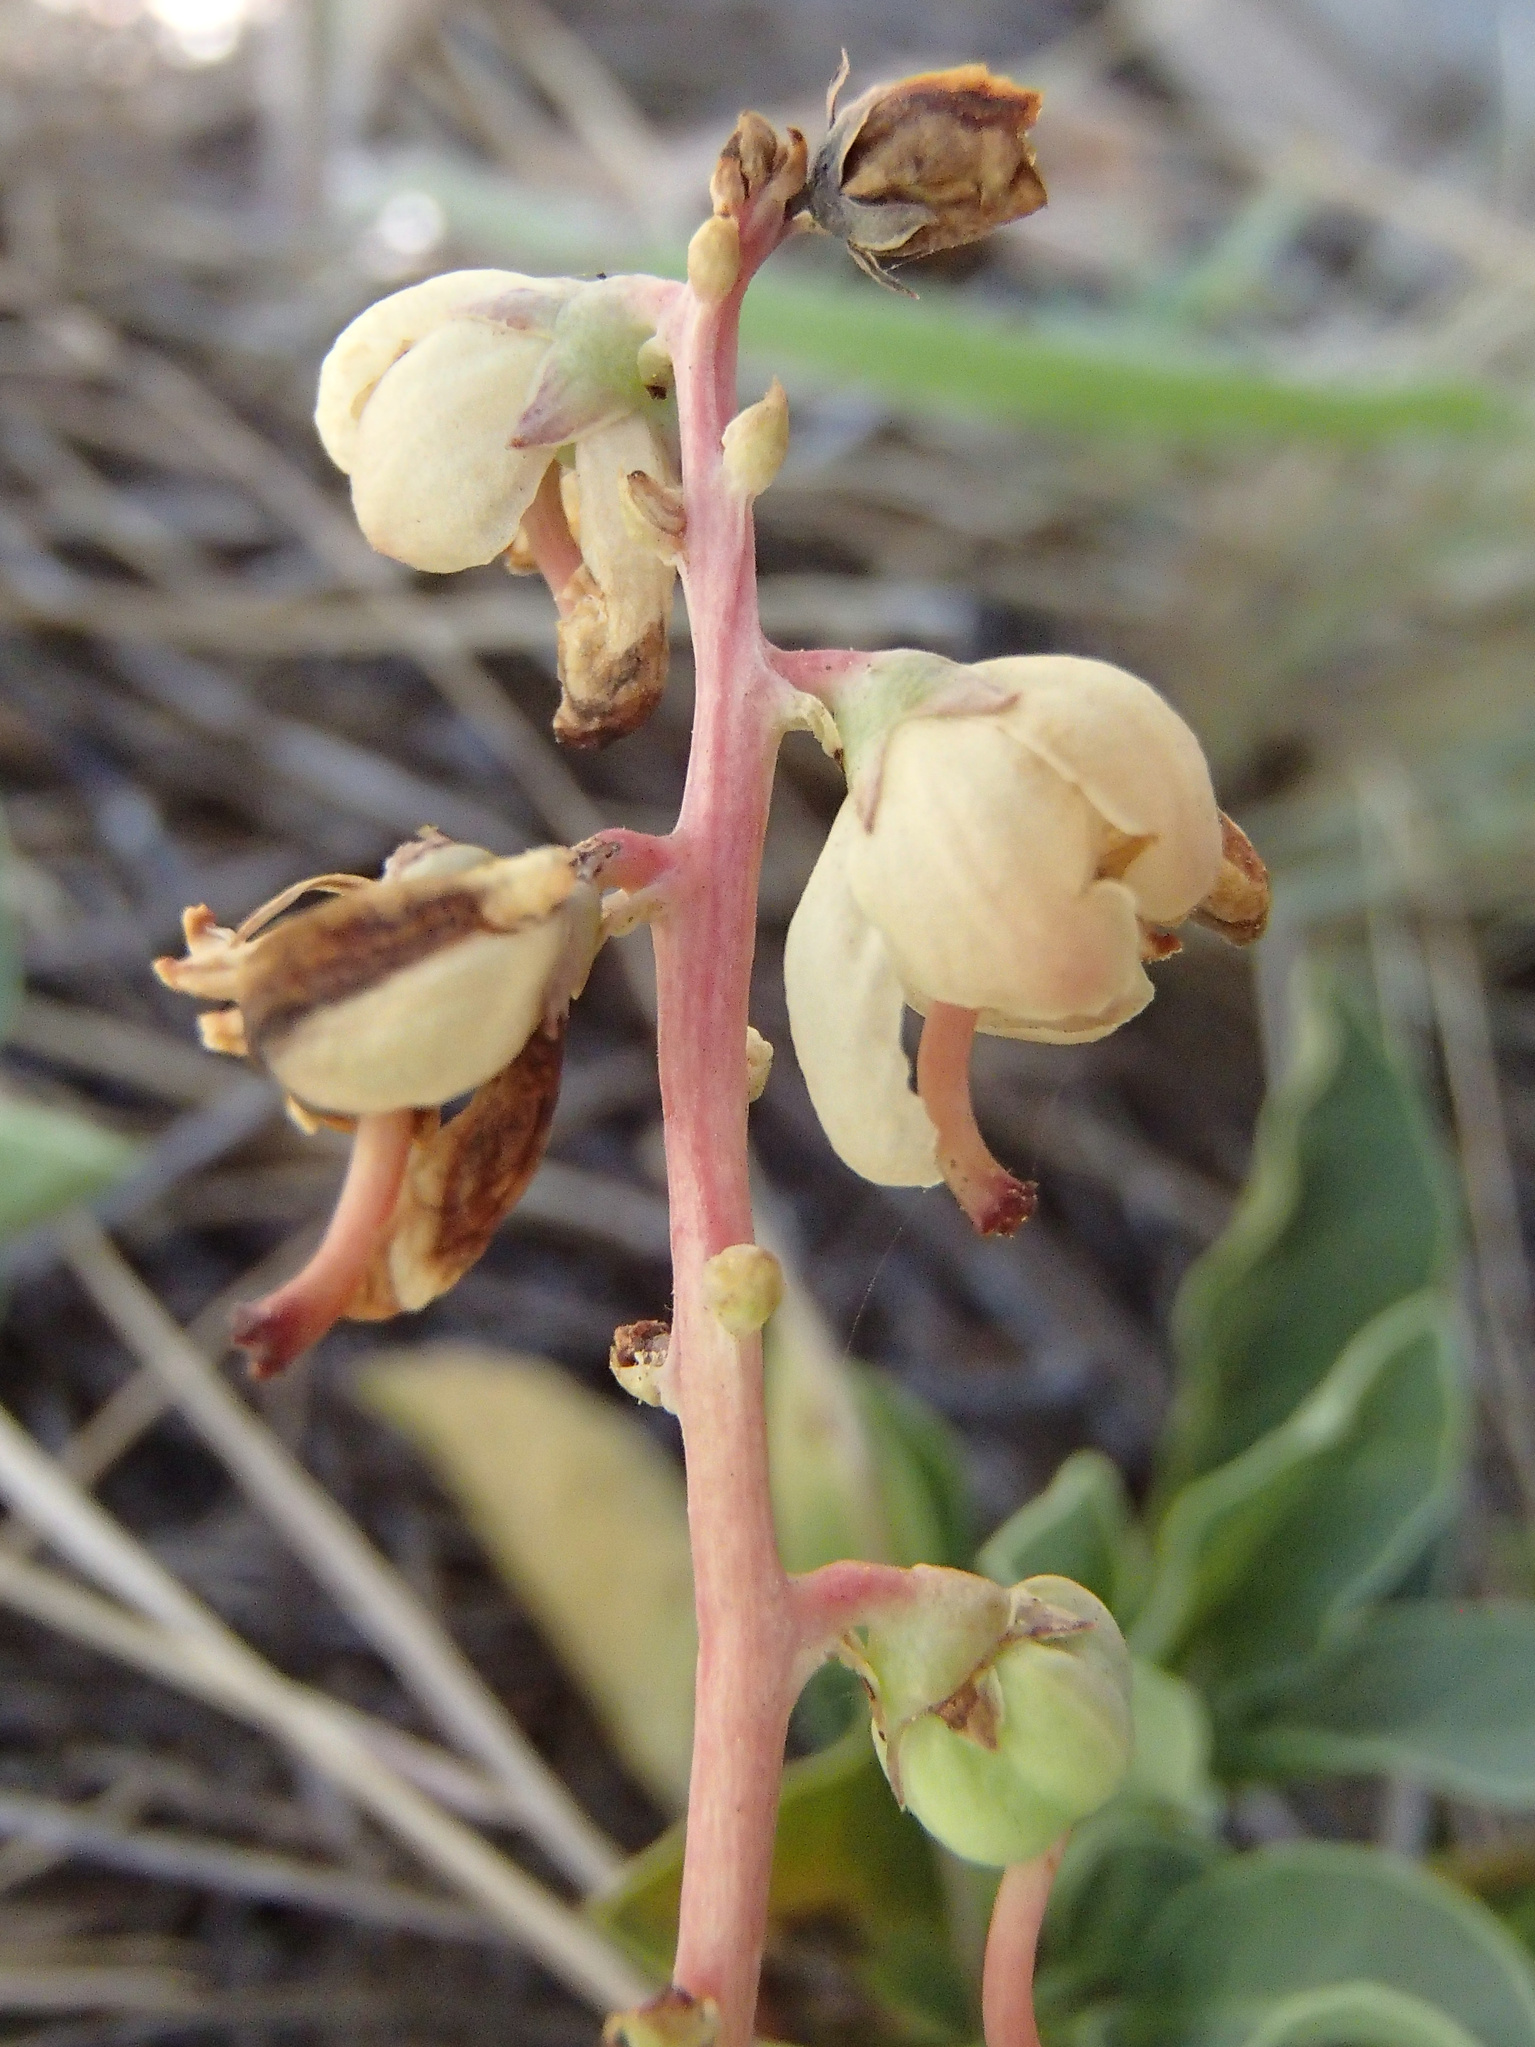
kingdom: Plantae
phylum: Tracheophyta
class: Magnoliopsida
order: Ericales
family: Ericaceae
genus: Pyrola
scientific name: Pyrola dentata
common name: Tooth-leaved wintergreen
